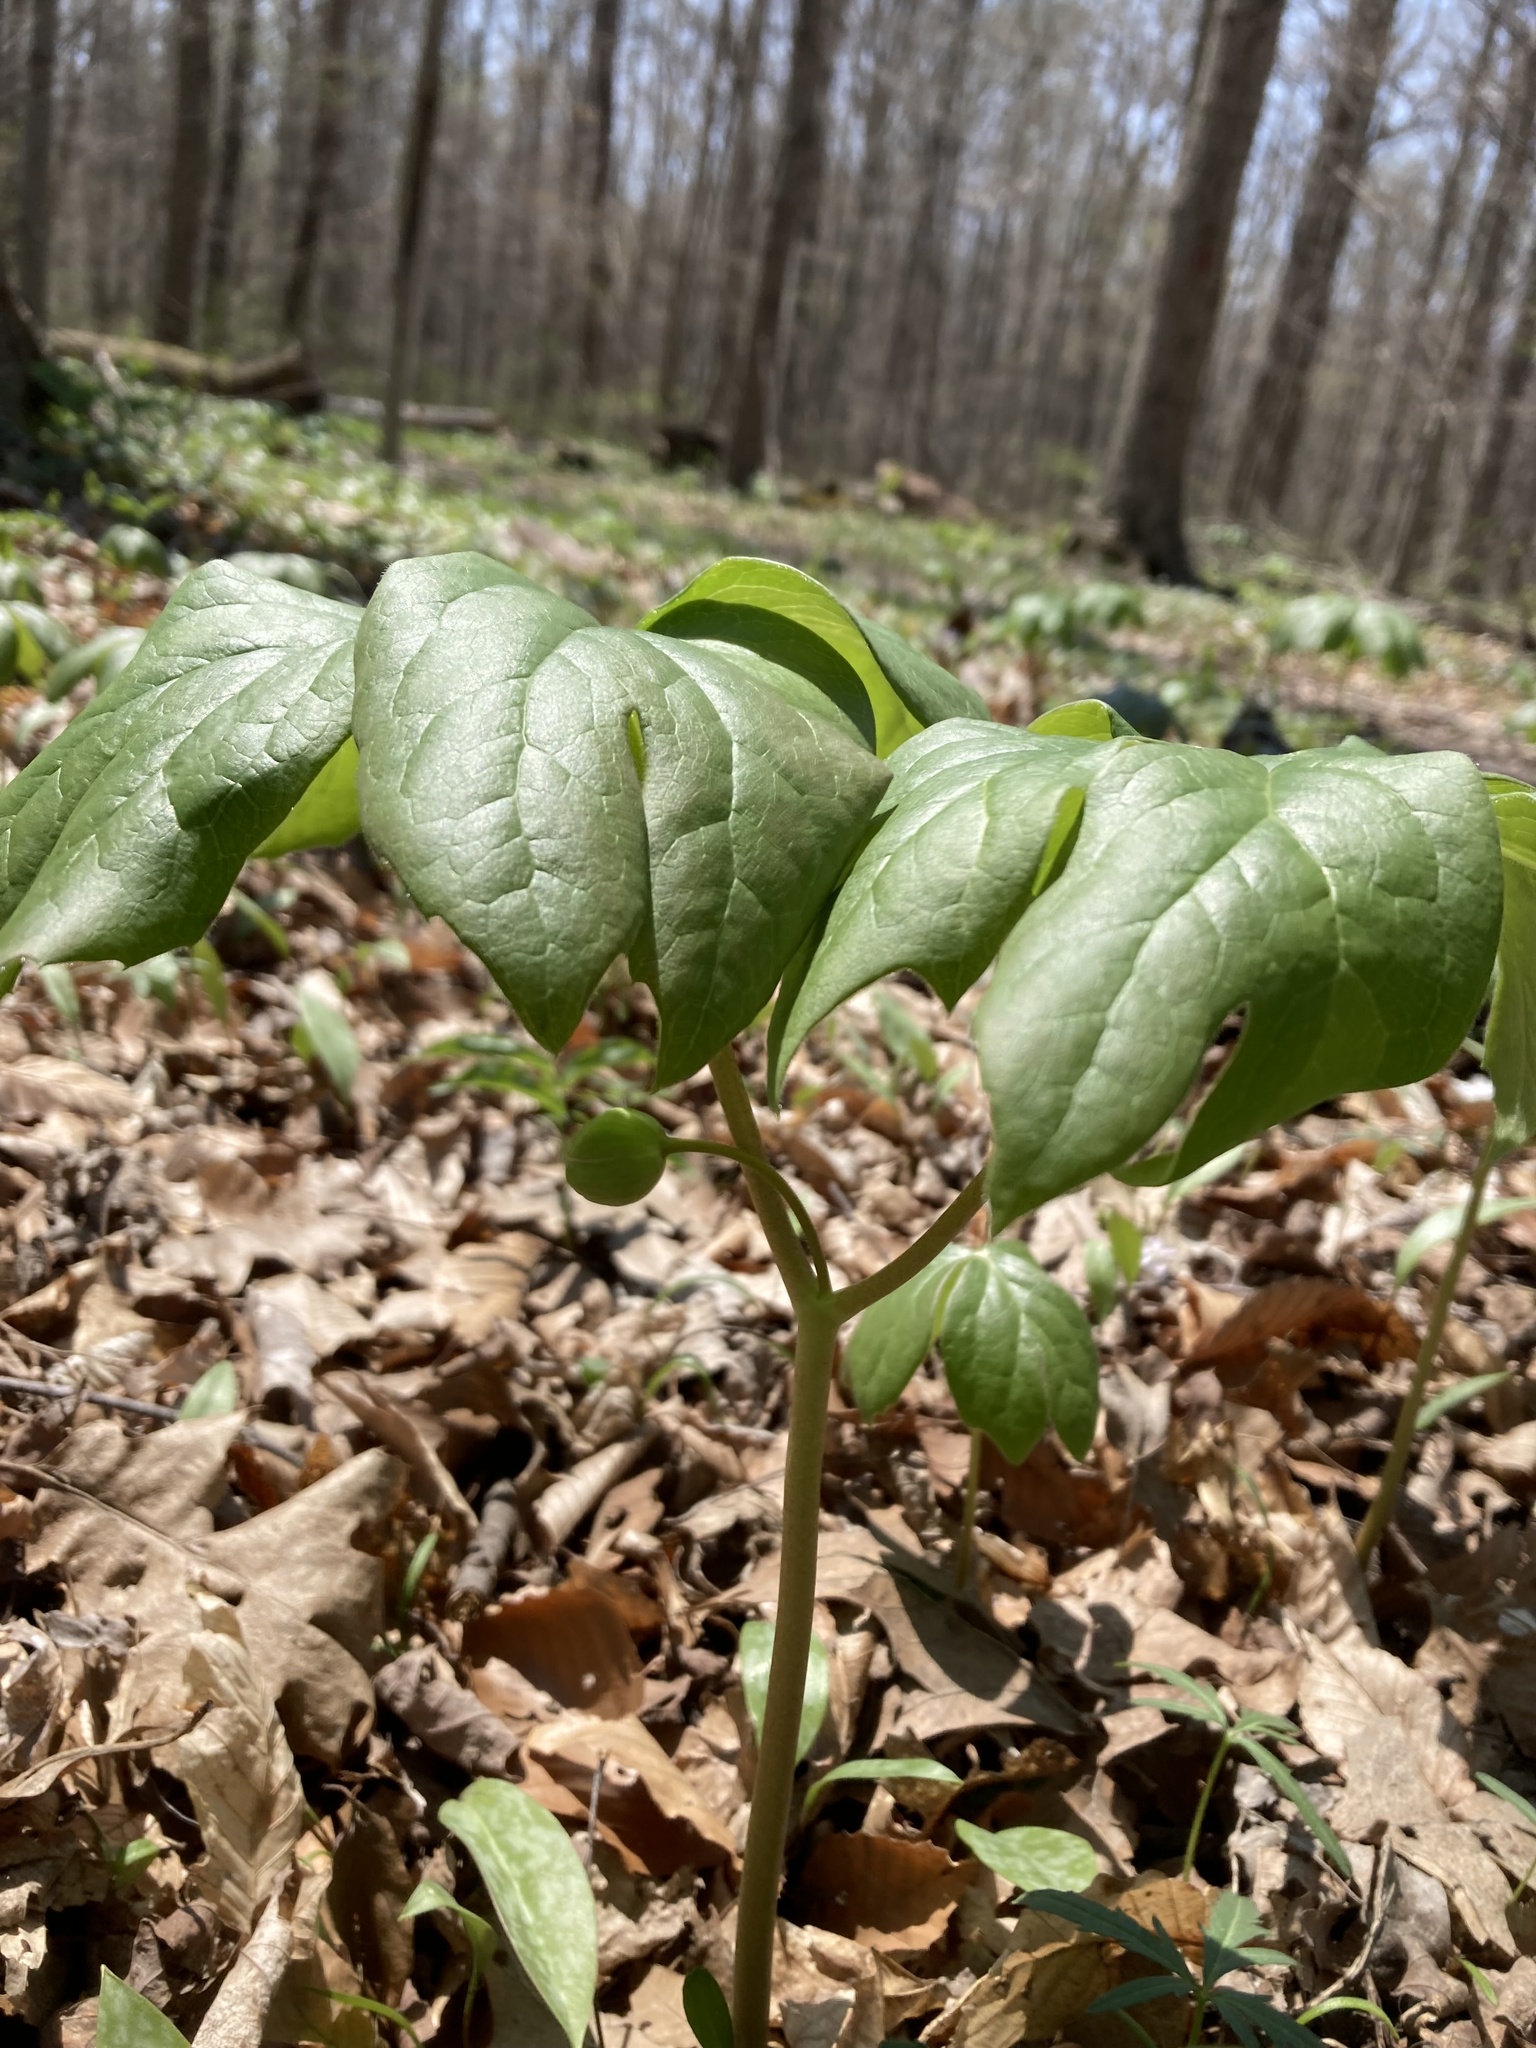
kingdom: Plantae
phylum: Tracheophyta
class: Magnoliopsida
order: Ranunculales
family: Berberidaceae
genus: Podophyllum
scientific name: Podophyllum peltatum
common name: Wild mandrake
